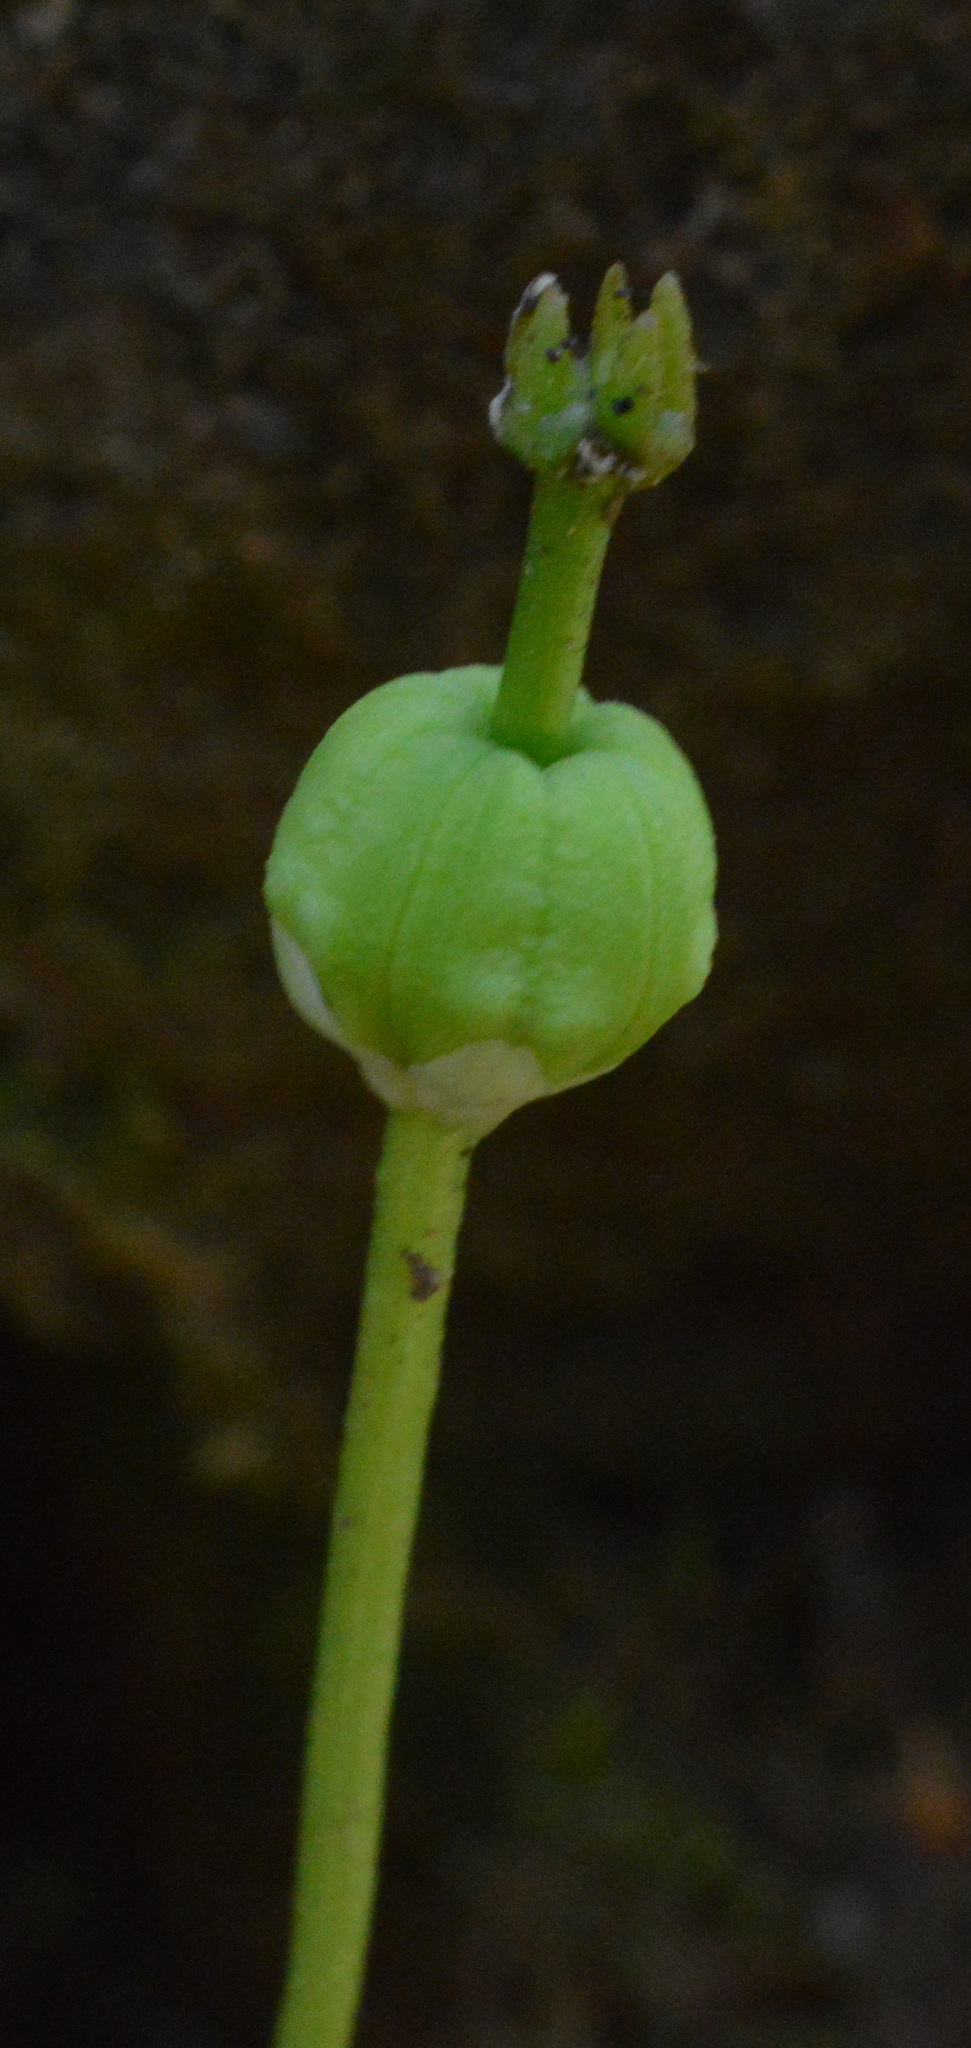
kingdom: Plantae
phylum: Tracheophyta
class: Magnoliopsida
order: Ericales
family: Ericaceae
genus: Moneses
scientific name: Moneses uniflora
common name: One-flowered wintergreen
